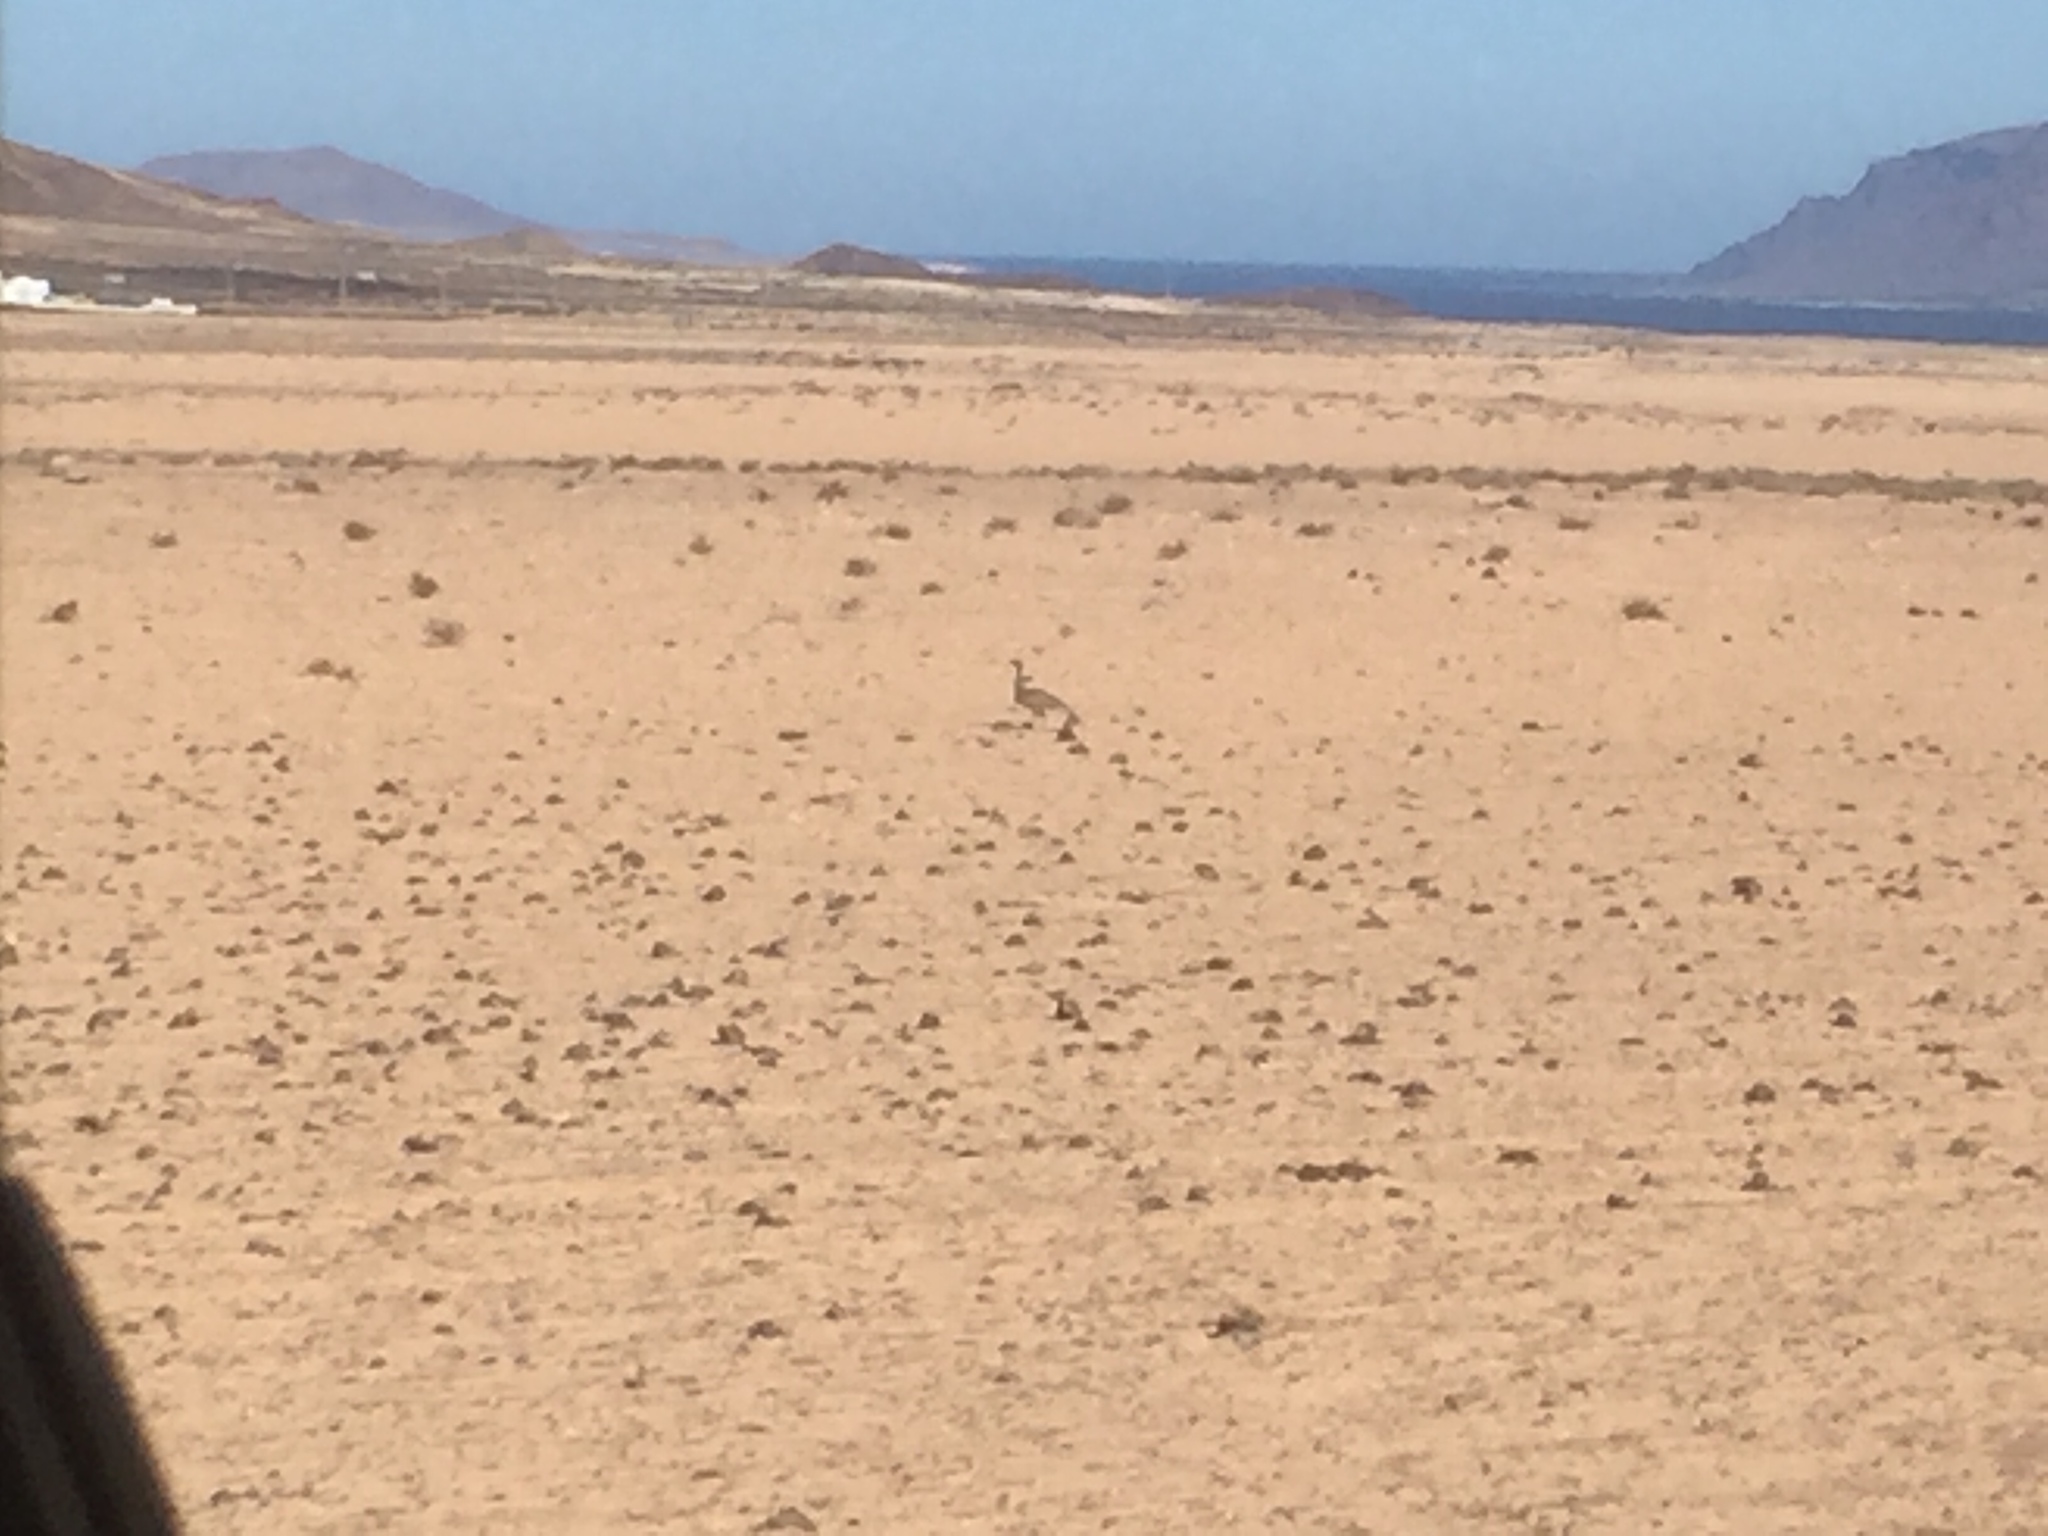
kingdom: Animalia
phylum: Chordata
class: Aves
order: Otidiformes
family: Otididae
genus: Chlamydotis
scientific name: Chlamydotis undulata
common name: Houbara bustard
